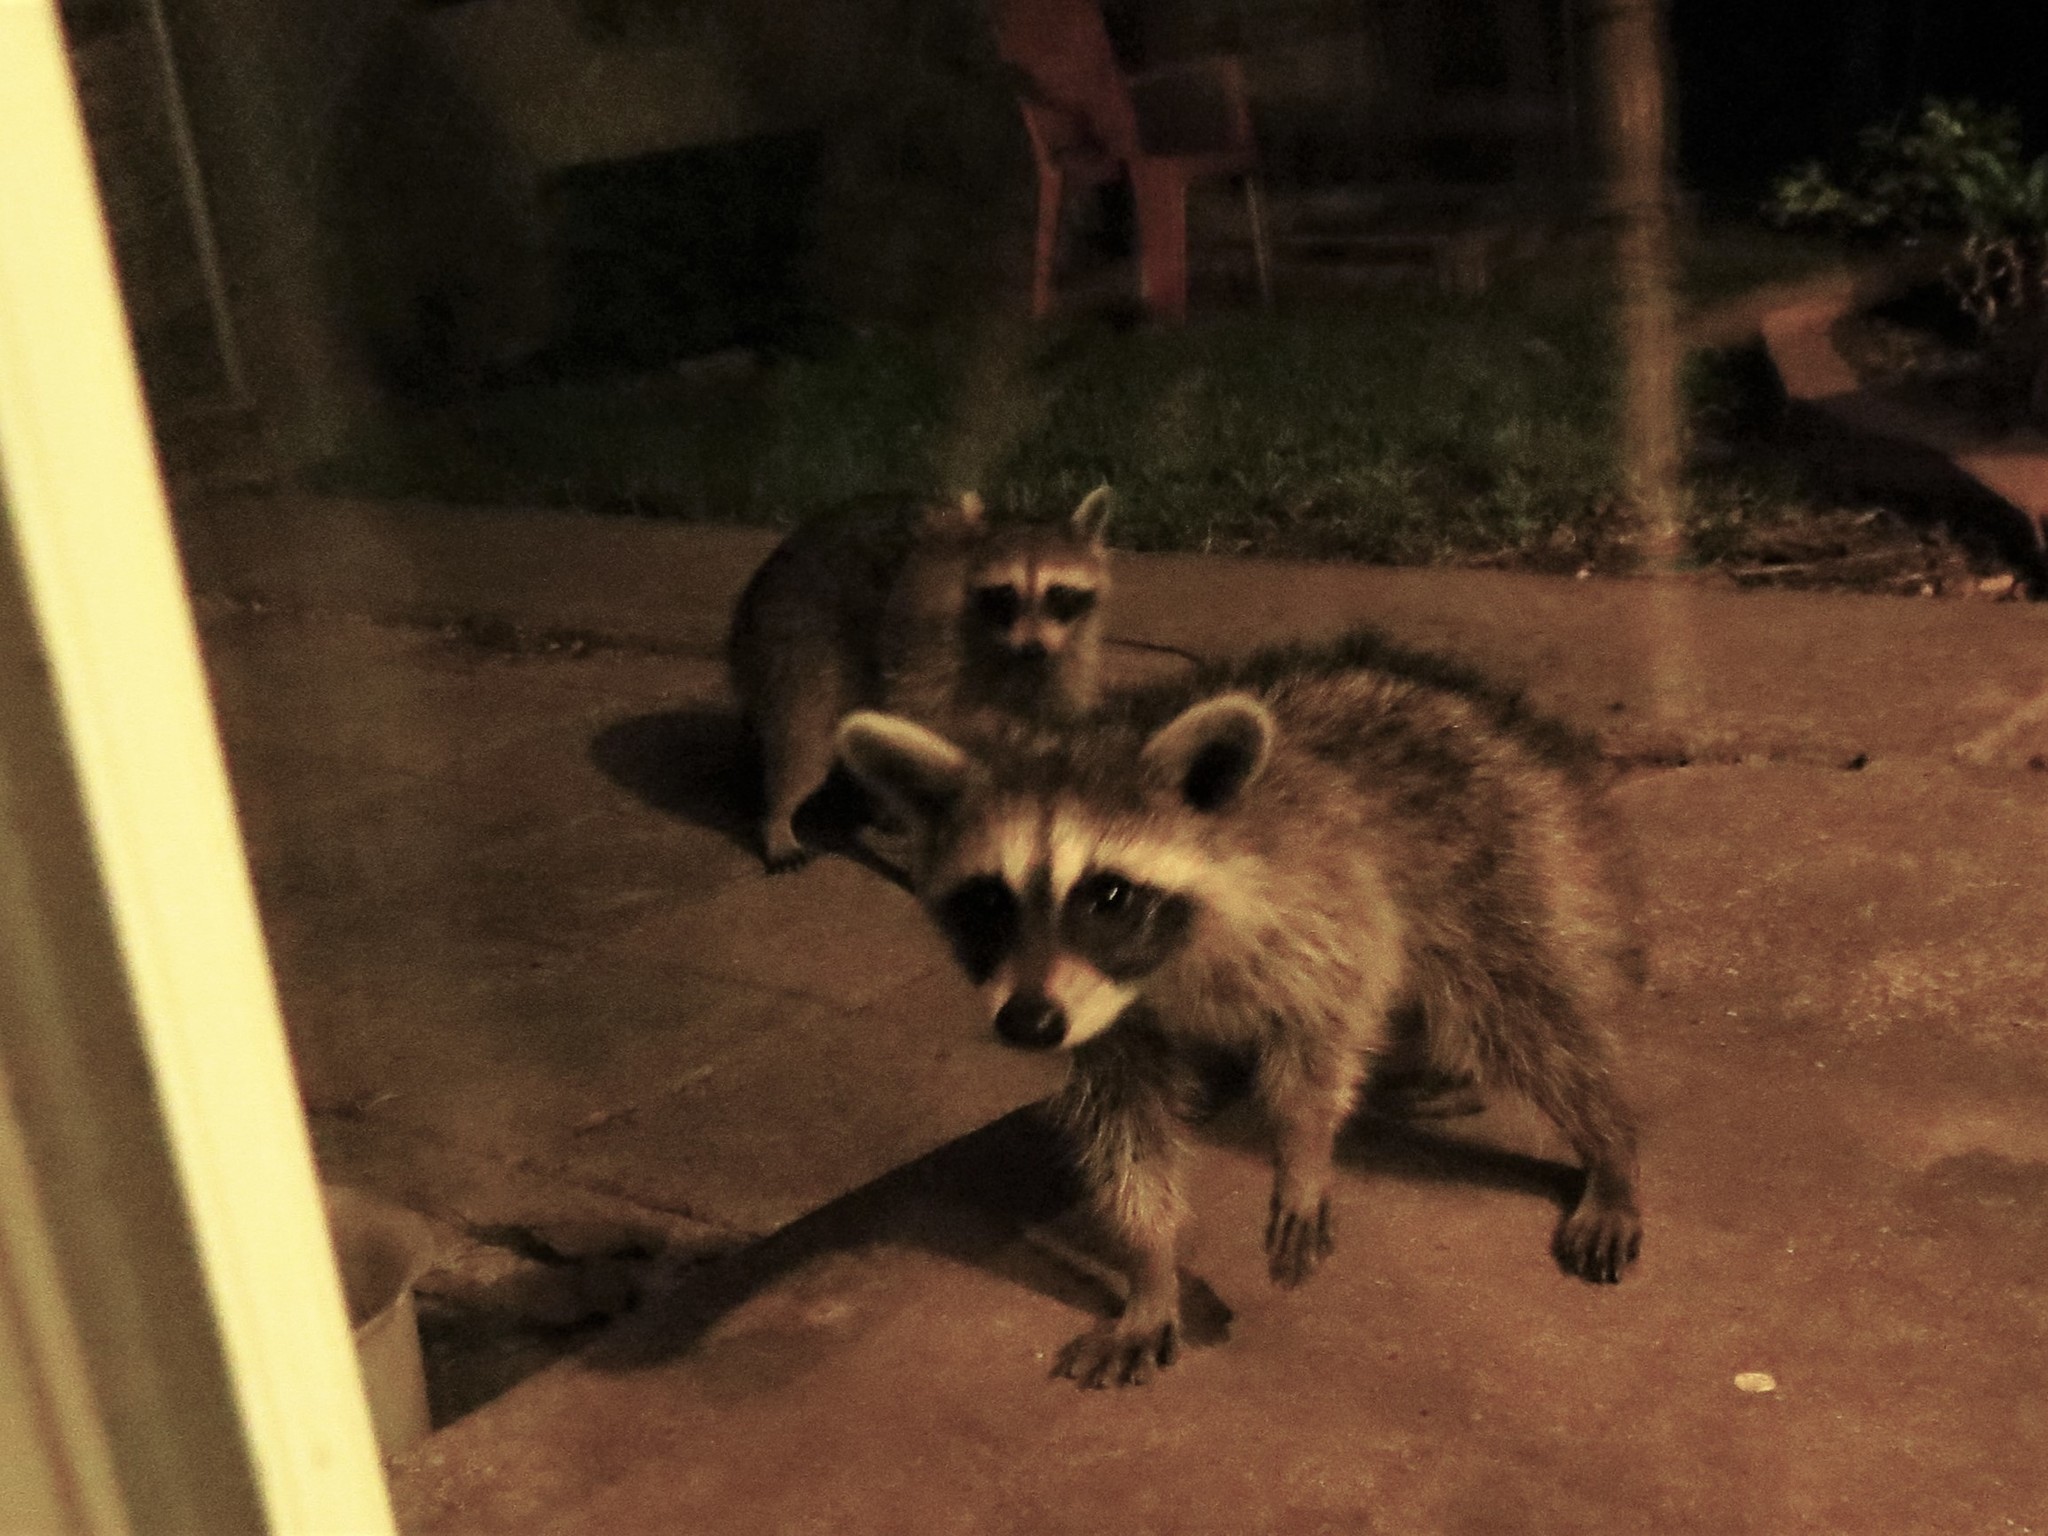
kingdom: Animalia
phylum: Chordata
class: Mammalia
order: Carnivora
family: Procyonidae
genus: Procyon
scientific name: Procyon lotor
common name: Raccoon
